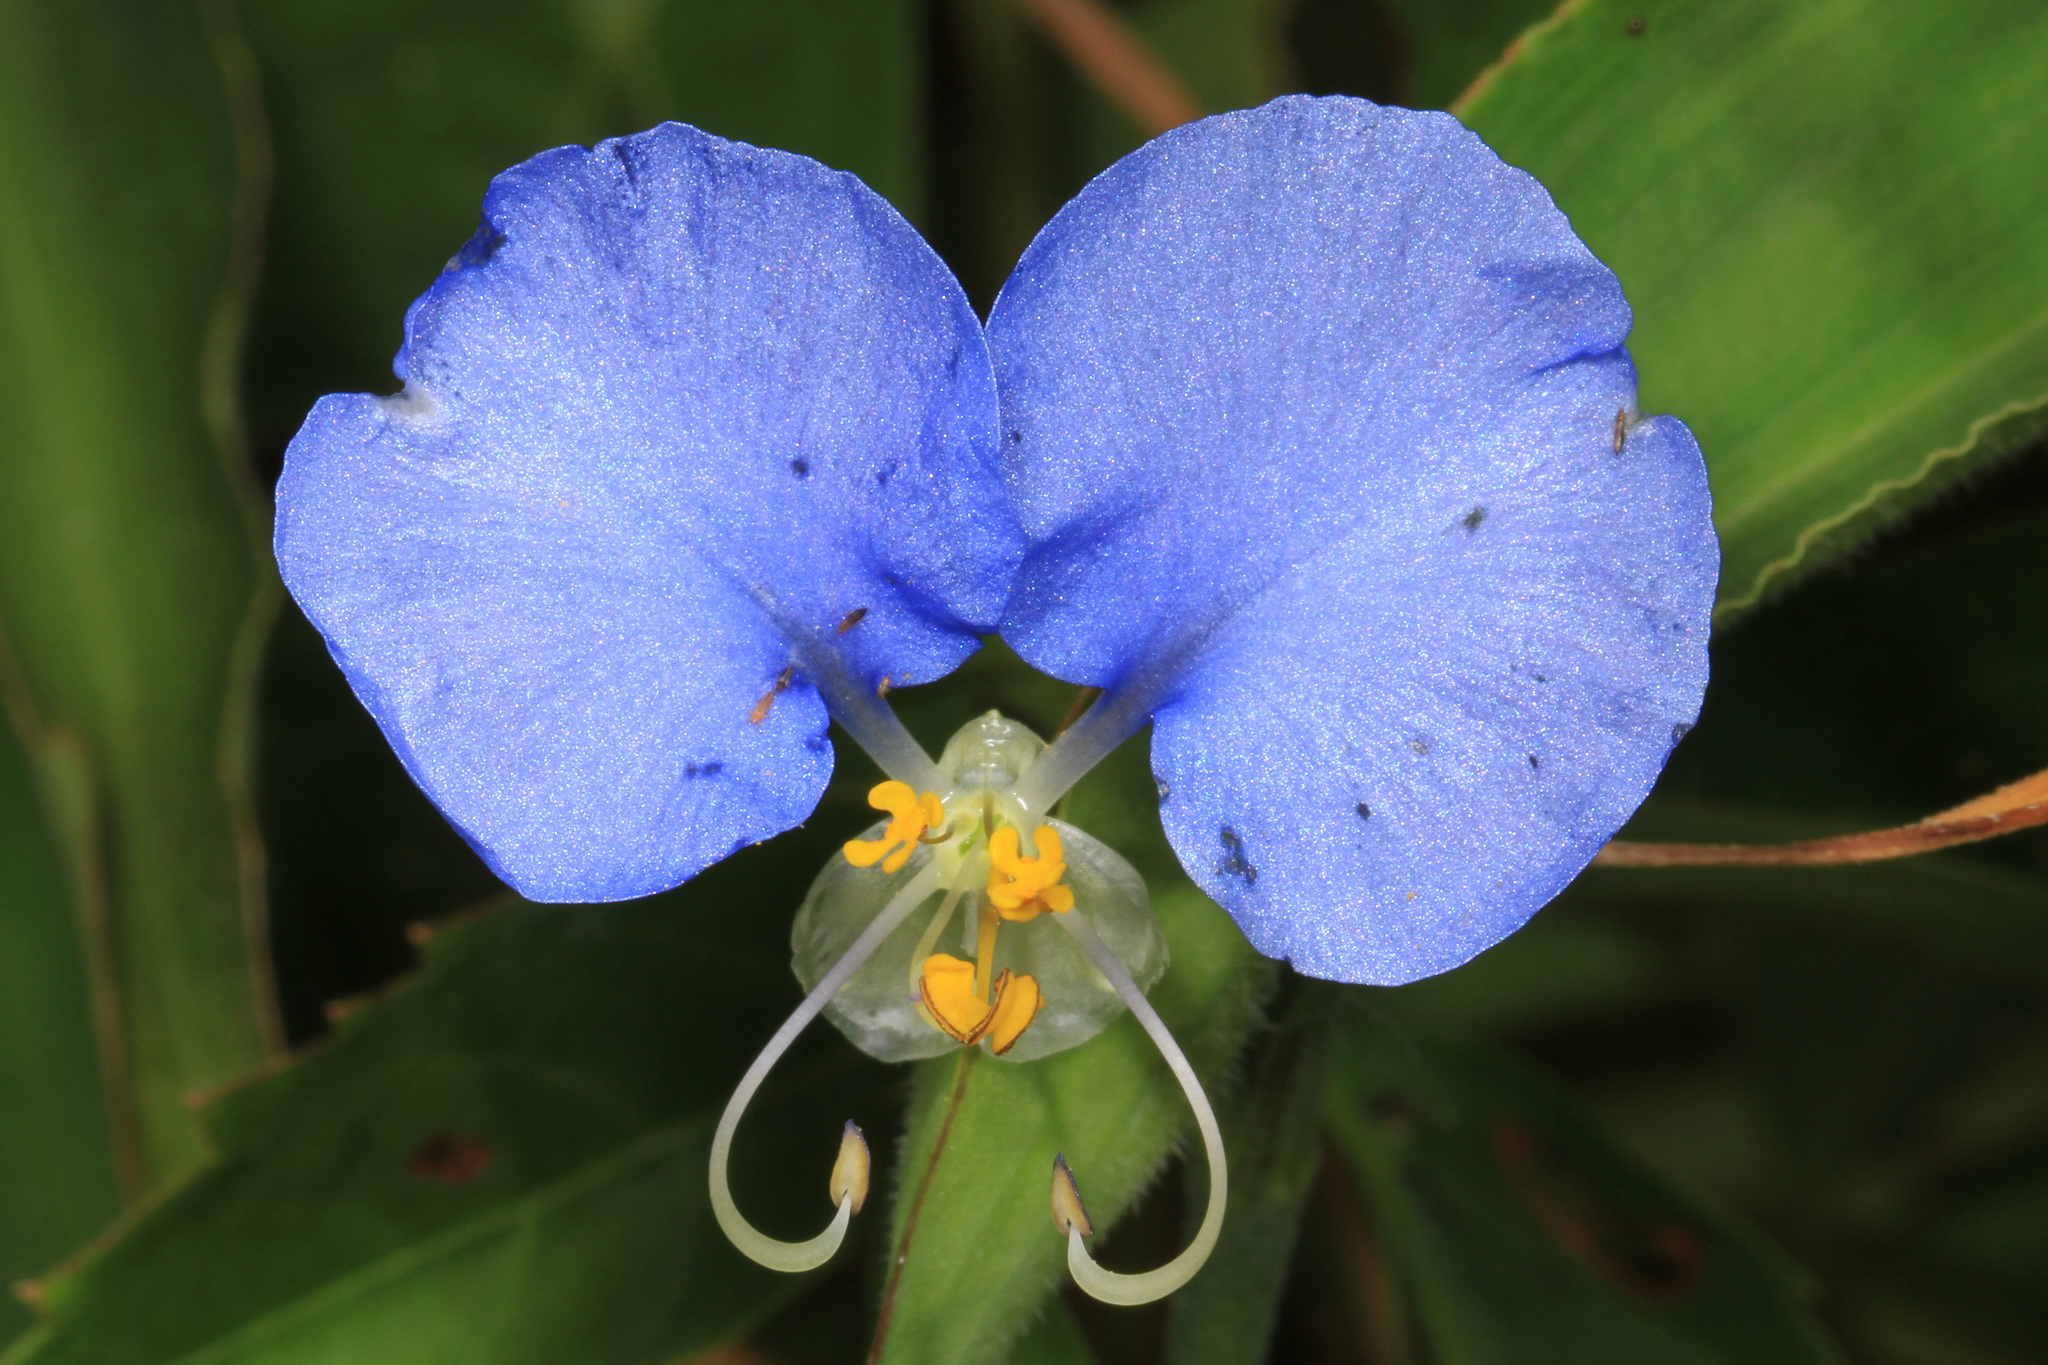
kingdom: Plantae
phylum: Tracheophyta
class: Liliopsida
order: Commelinales
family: Commelinaceae
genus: Commelina
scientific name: Commelina erecta
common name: Blousel blommetjie
